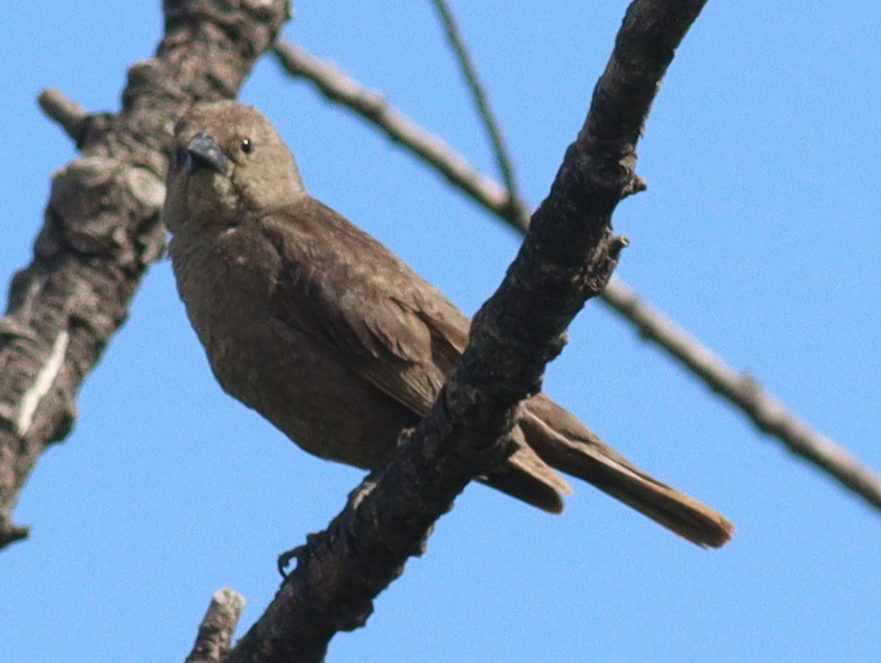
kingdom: Animalia
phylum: Chordata
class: Aves
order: Passeriformes
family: Icteridae
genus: Molothrus
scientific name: Molothrus bonariensis
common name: Shiny cowbird
